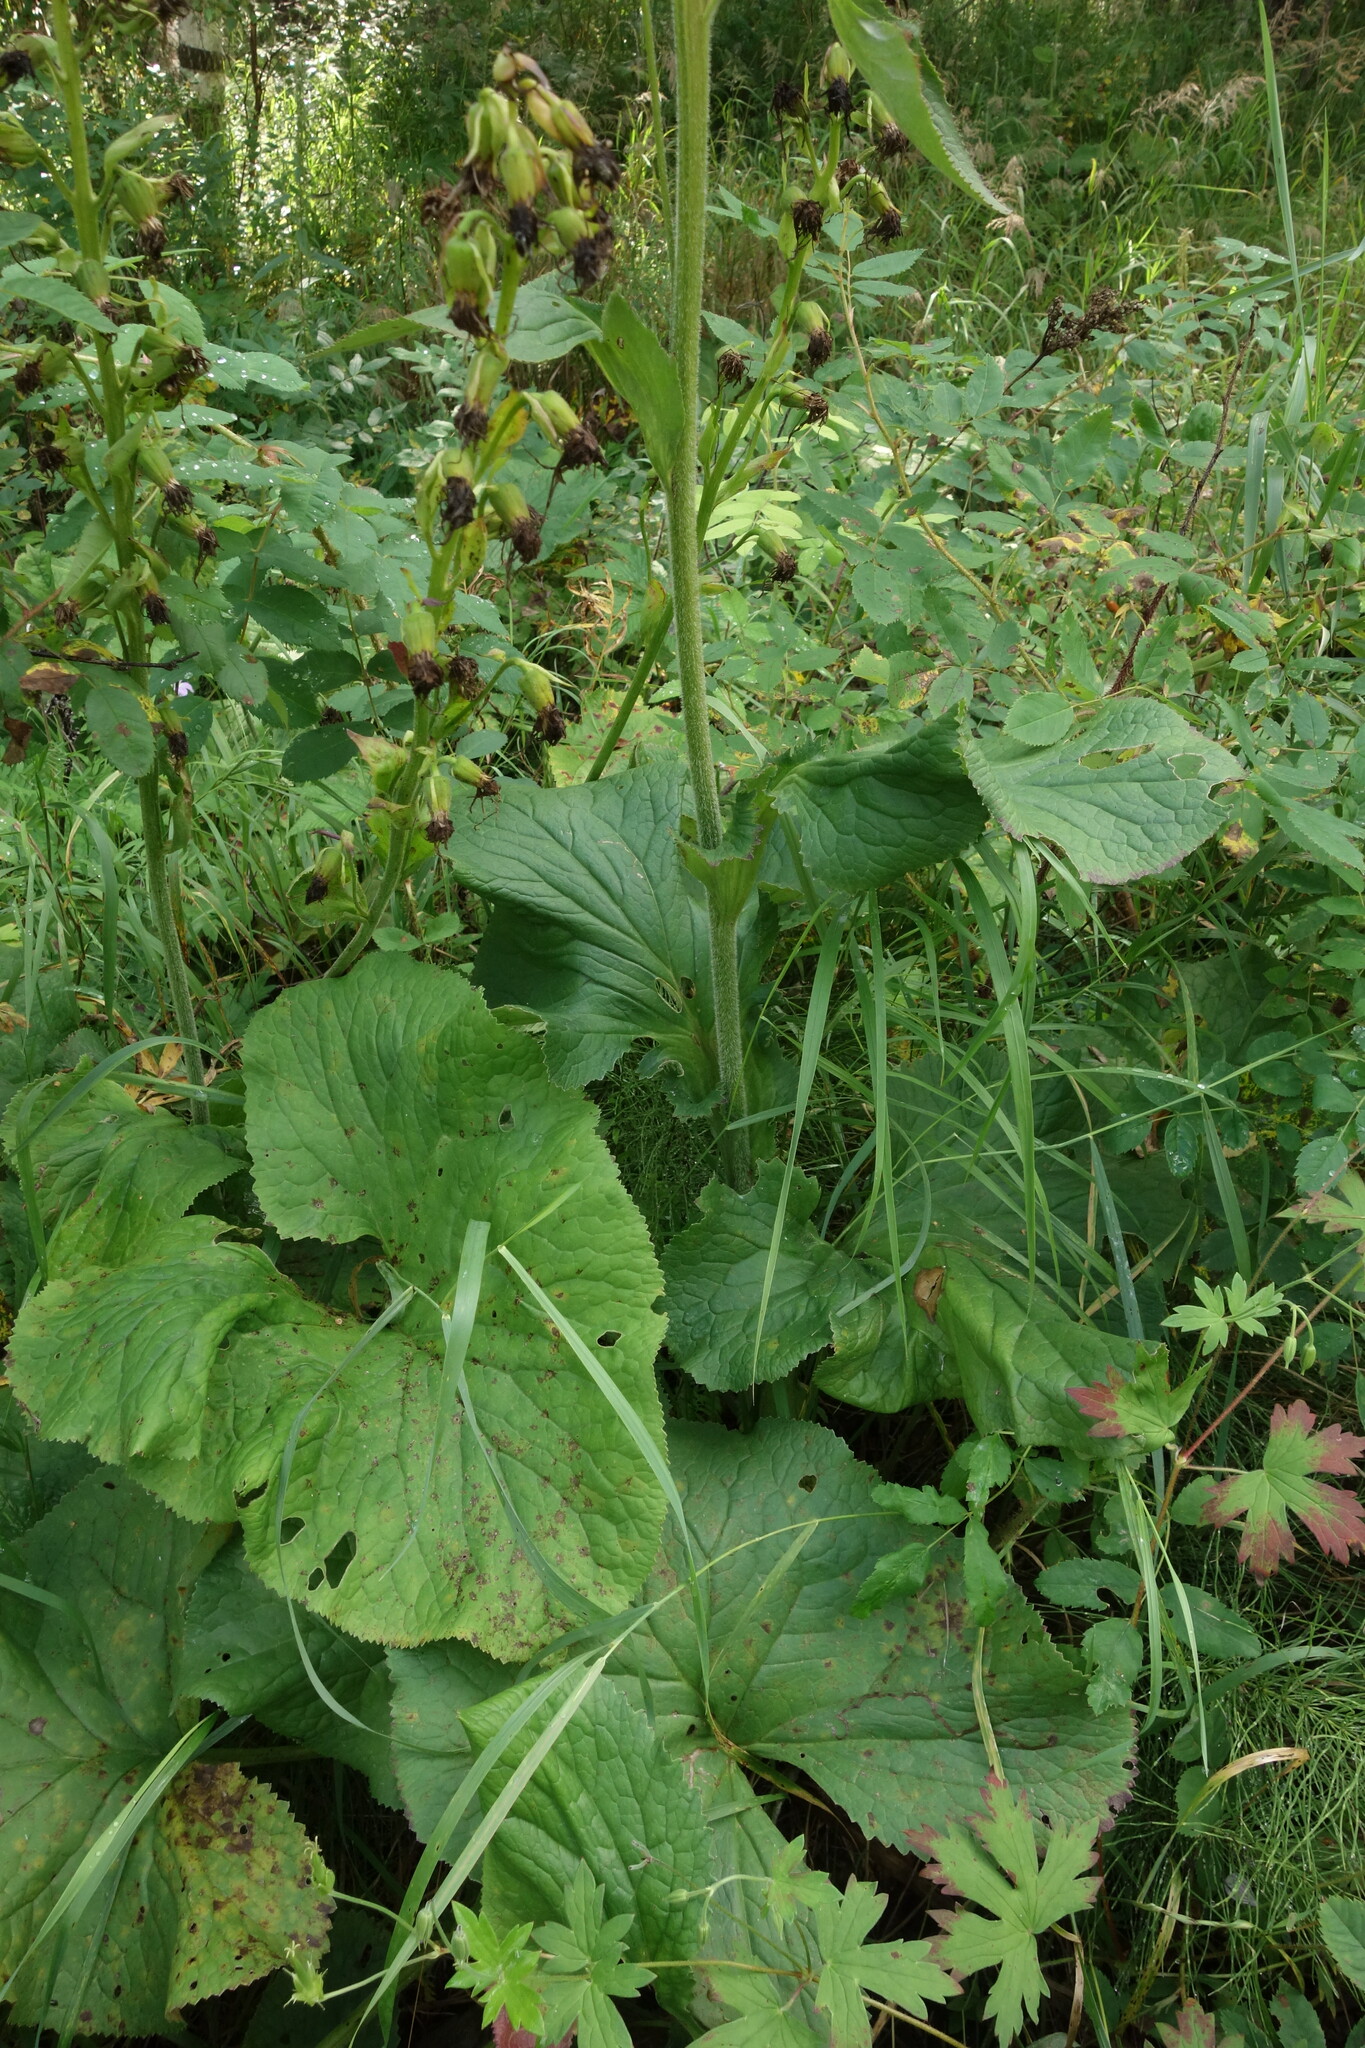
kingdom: Plantae
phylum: Tracheophyta
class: Magnoliopsida
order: Asterales
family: Asteraceae
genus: Ligularia
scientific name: Ligularia fischeri
